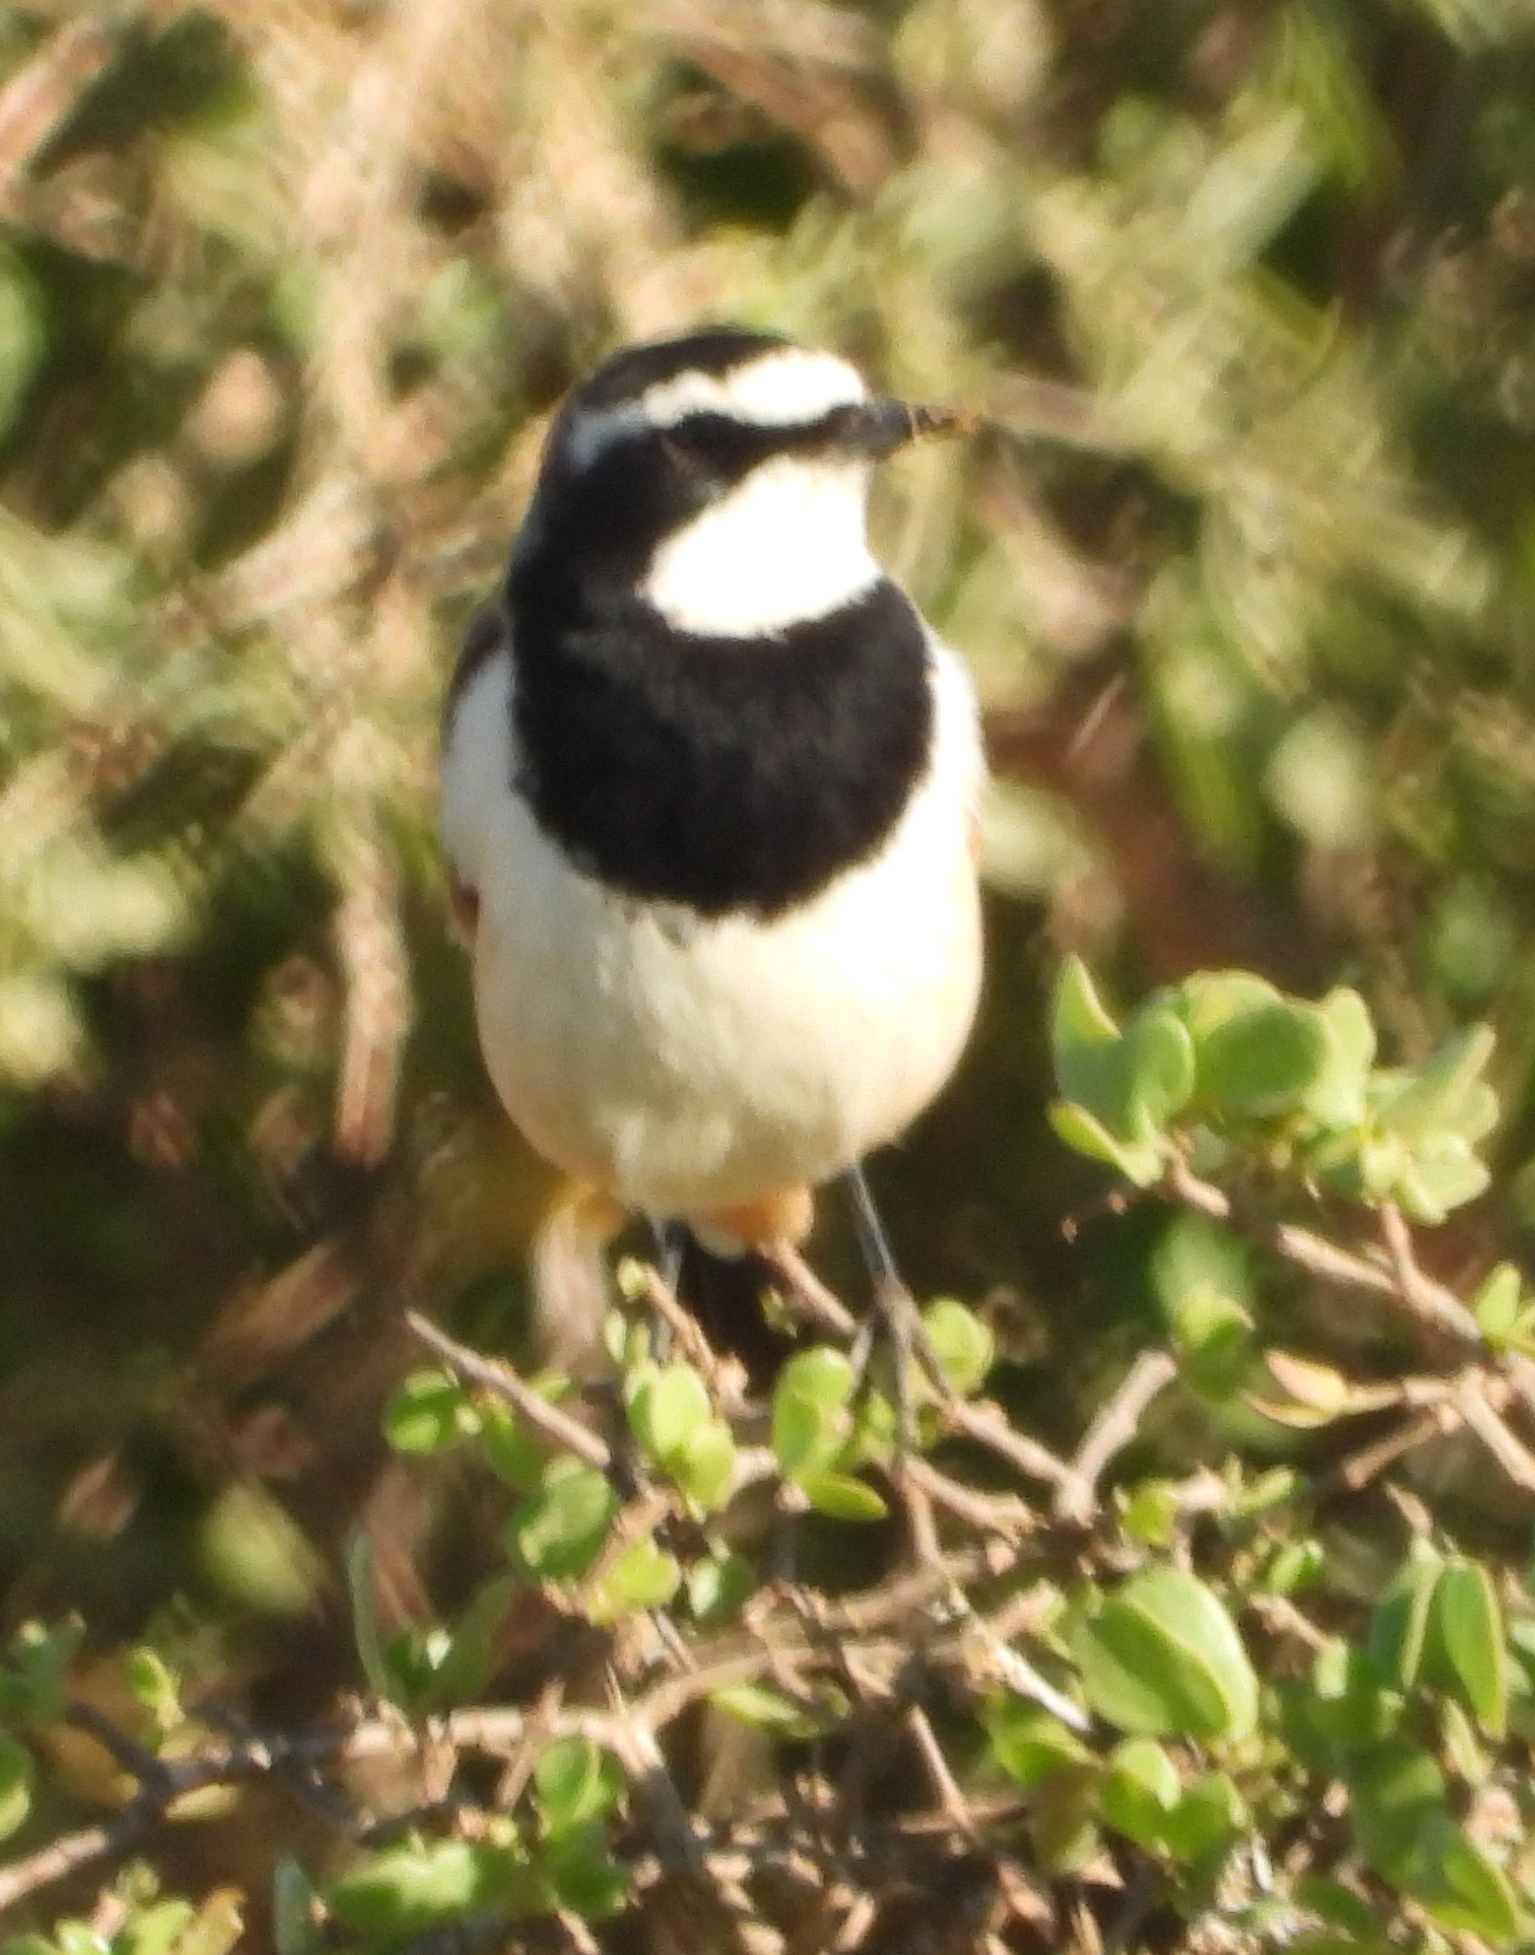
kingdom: Animalia
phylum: Chordata
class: Aves
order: Passeriformes
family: Muscicapidae
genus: Oenanthe
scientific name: Oenanthe pileata
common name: Capped wheatear
